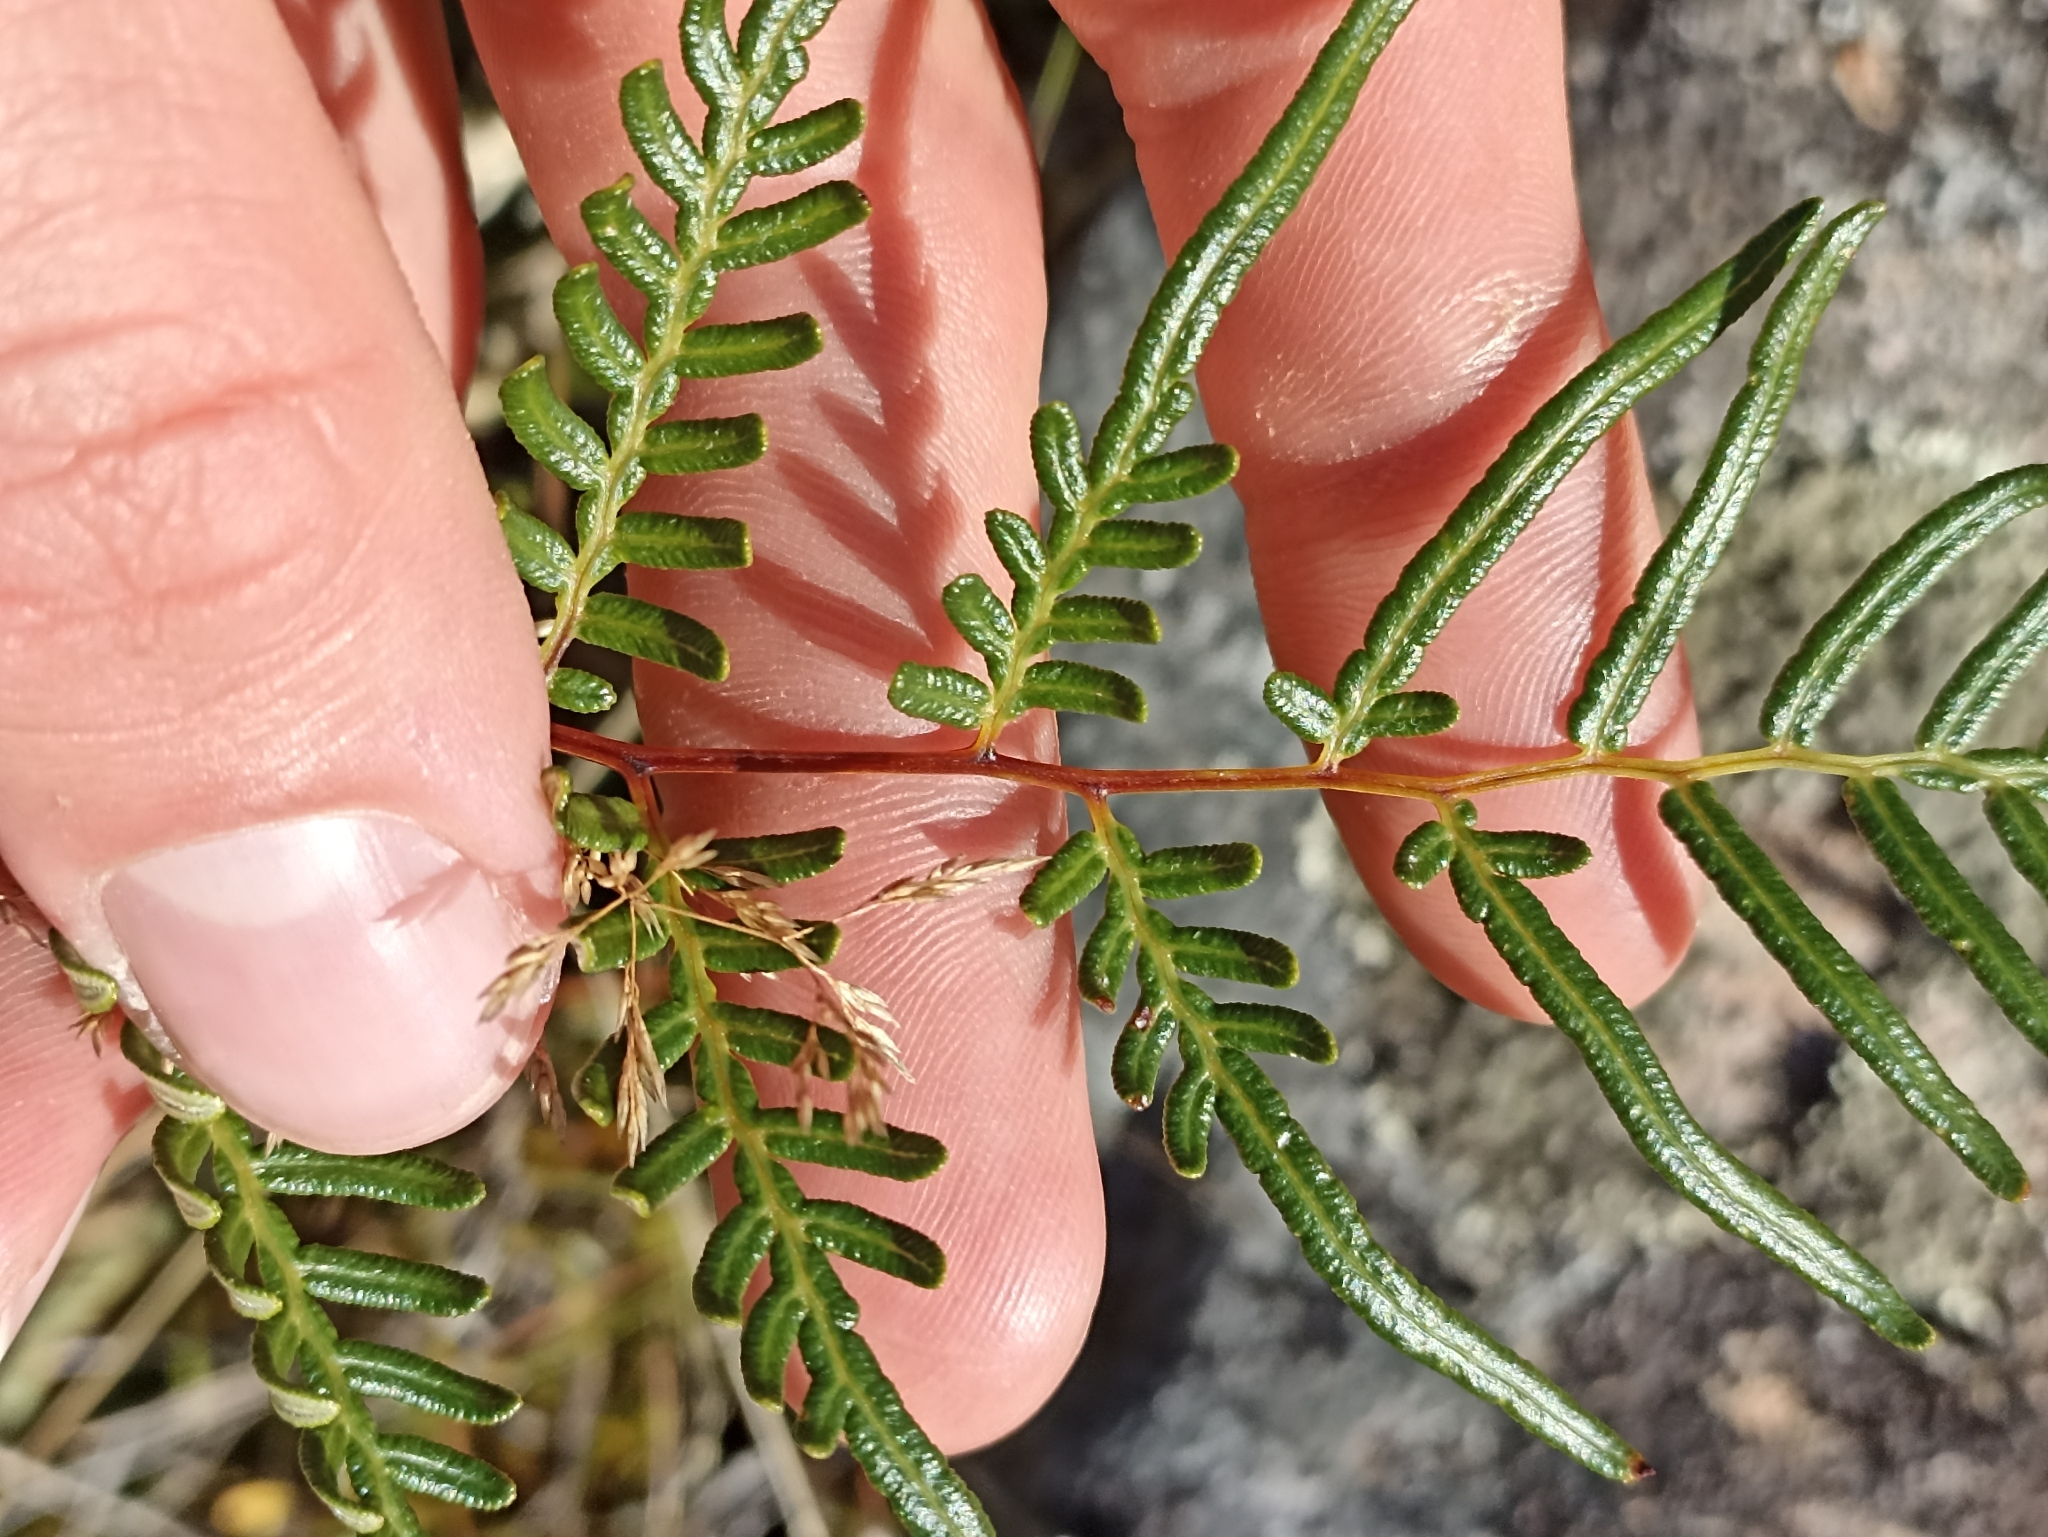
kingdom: Plantae
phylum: Tracheophyta
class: Polypodiopsida
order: Polypodiales
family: Dennstaedtiaceae
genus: Pteridium
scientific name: Pteridium esculentum
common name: Bracken fern
